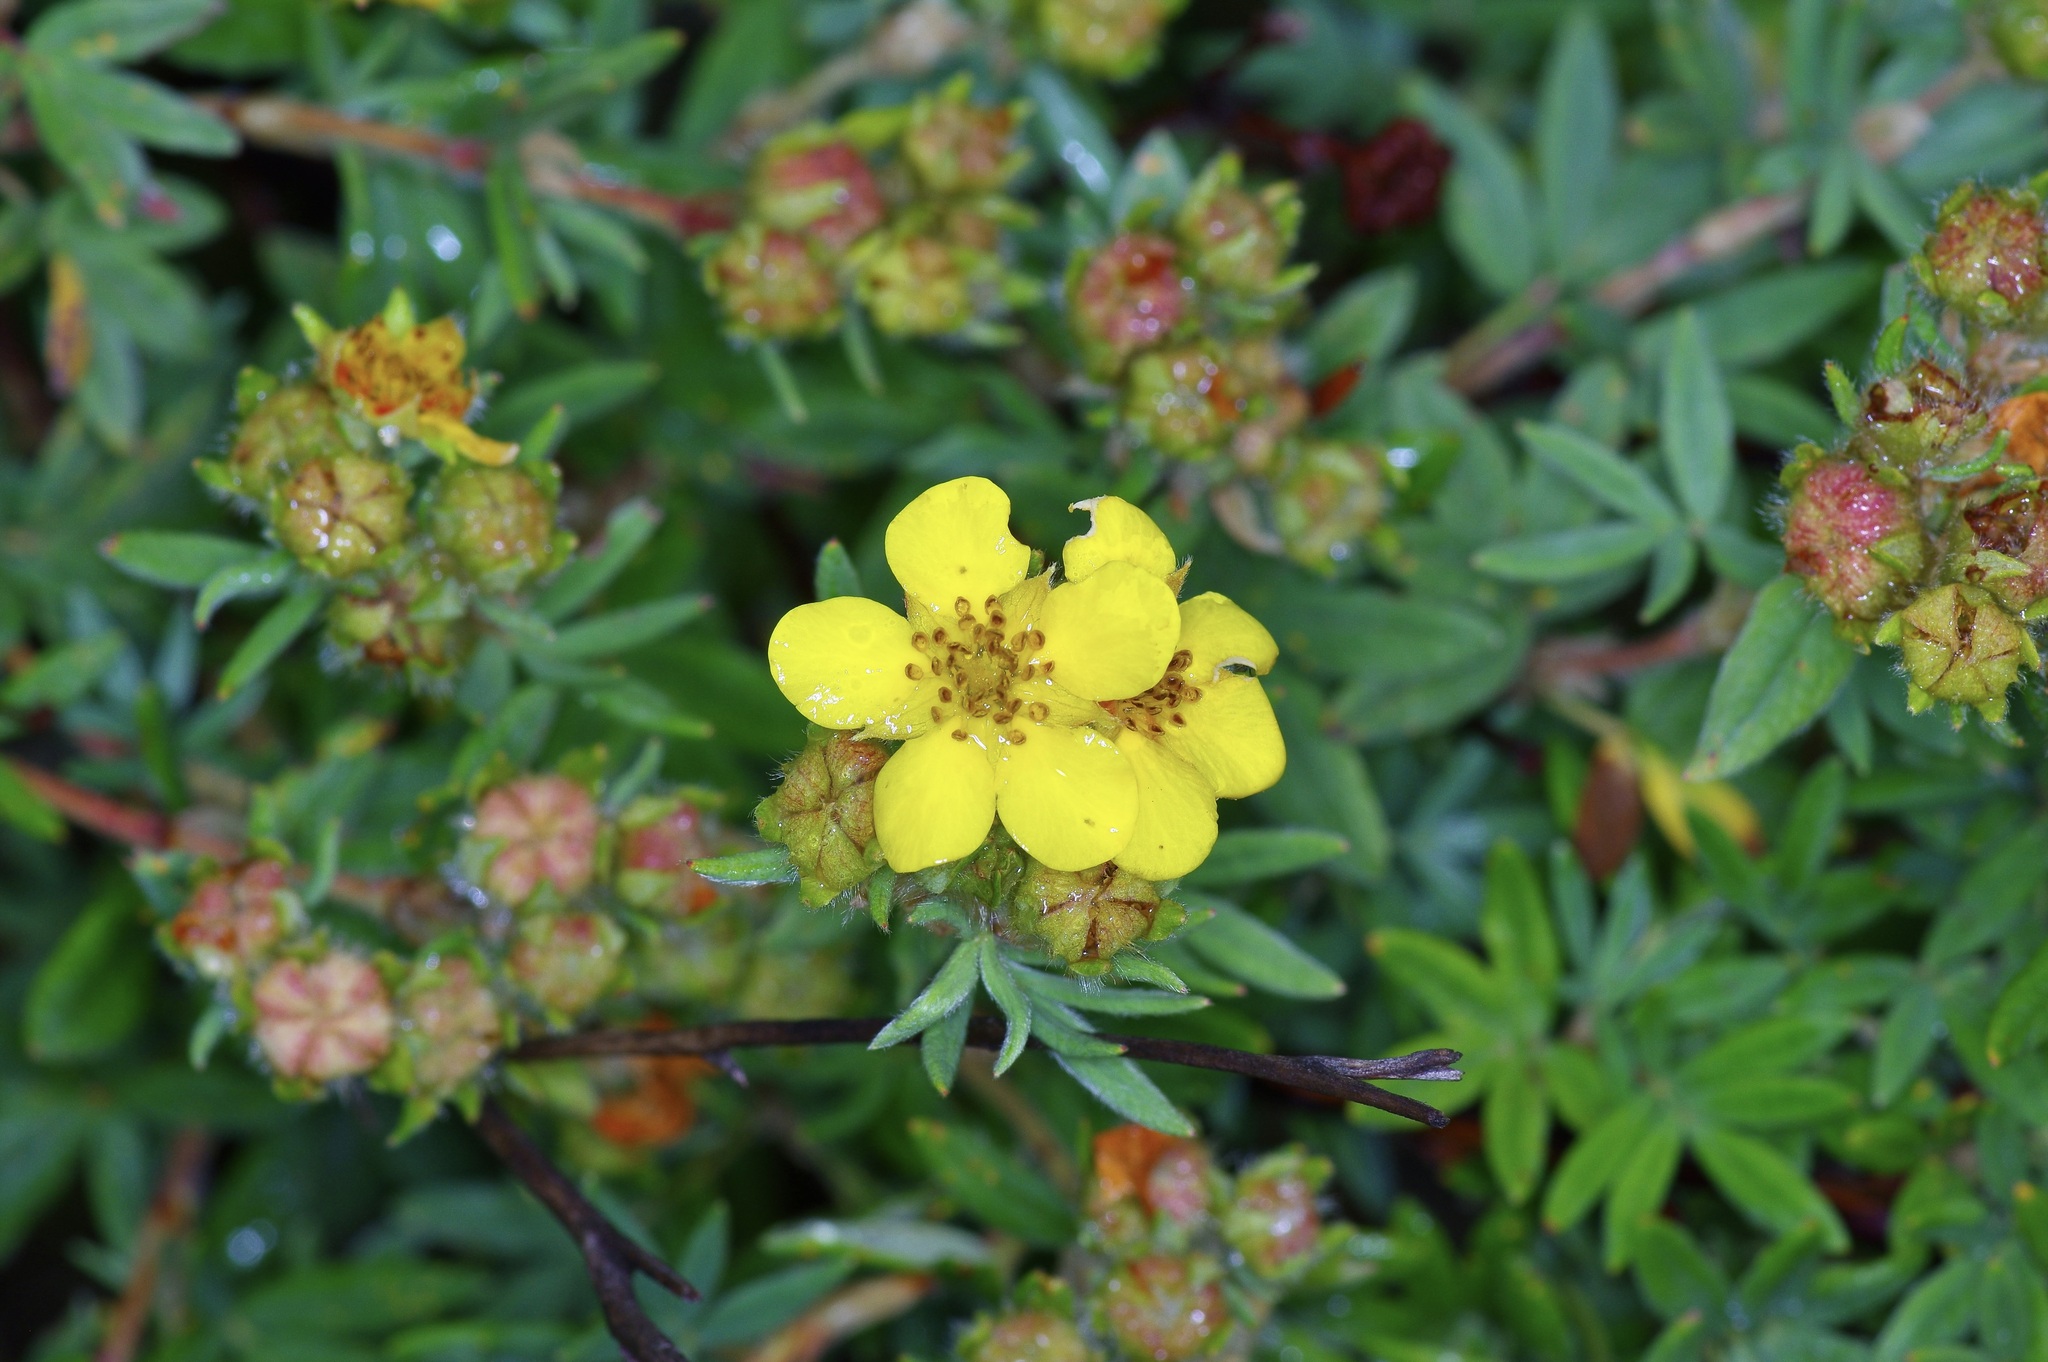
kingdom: Plantae
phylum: Tracheophyta
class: Magnoliopsida
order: Rosales
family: Rosaceae
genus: Dasiphora
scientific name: Dasiphora fruticosa
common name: Shrubby cinquefoil
